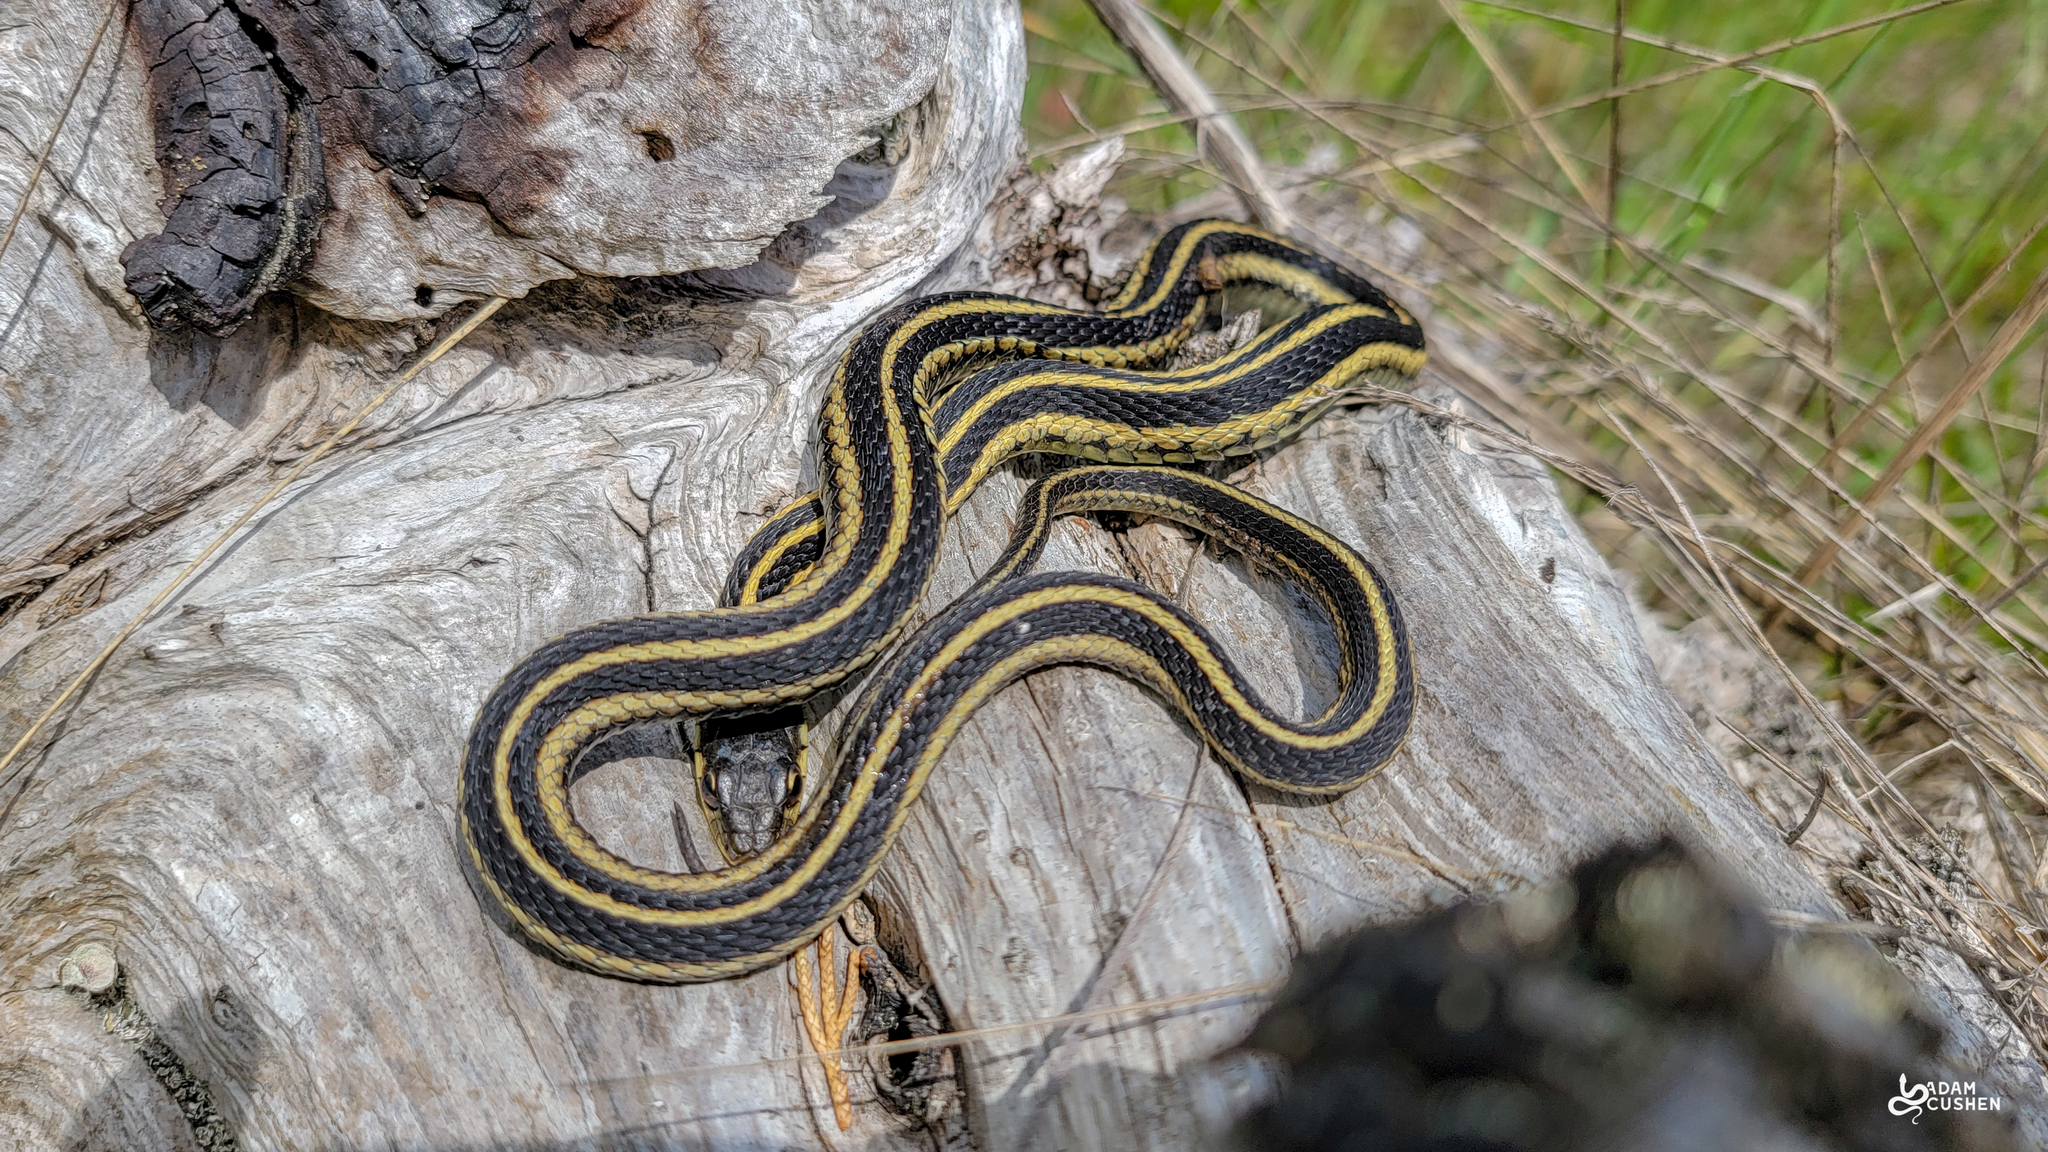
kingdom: Animalia
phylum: Chordata
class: Squamata
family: Colubridae
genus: Thamnophis
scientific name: Thamnophis sirtalis
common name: Common garter snake
